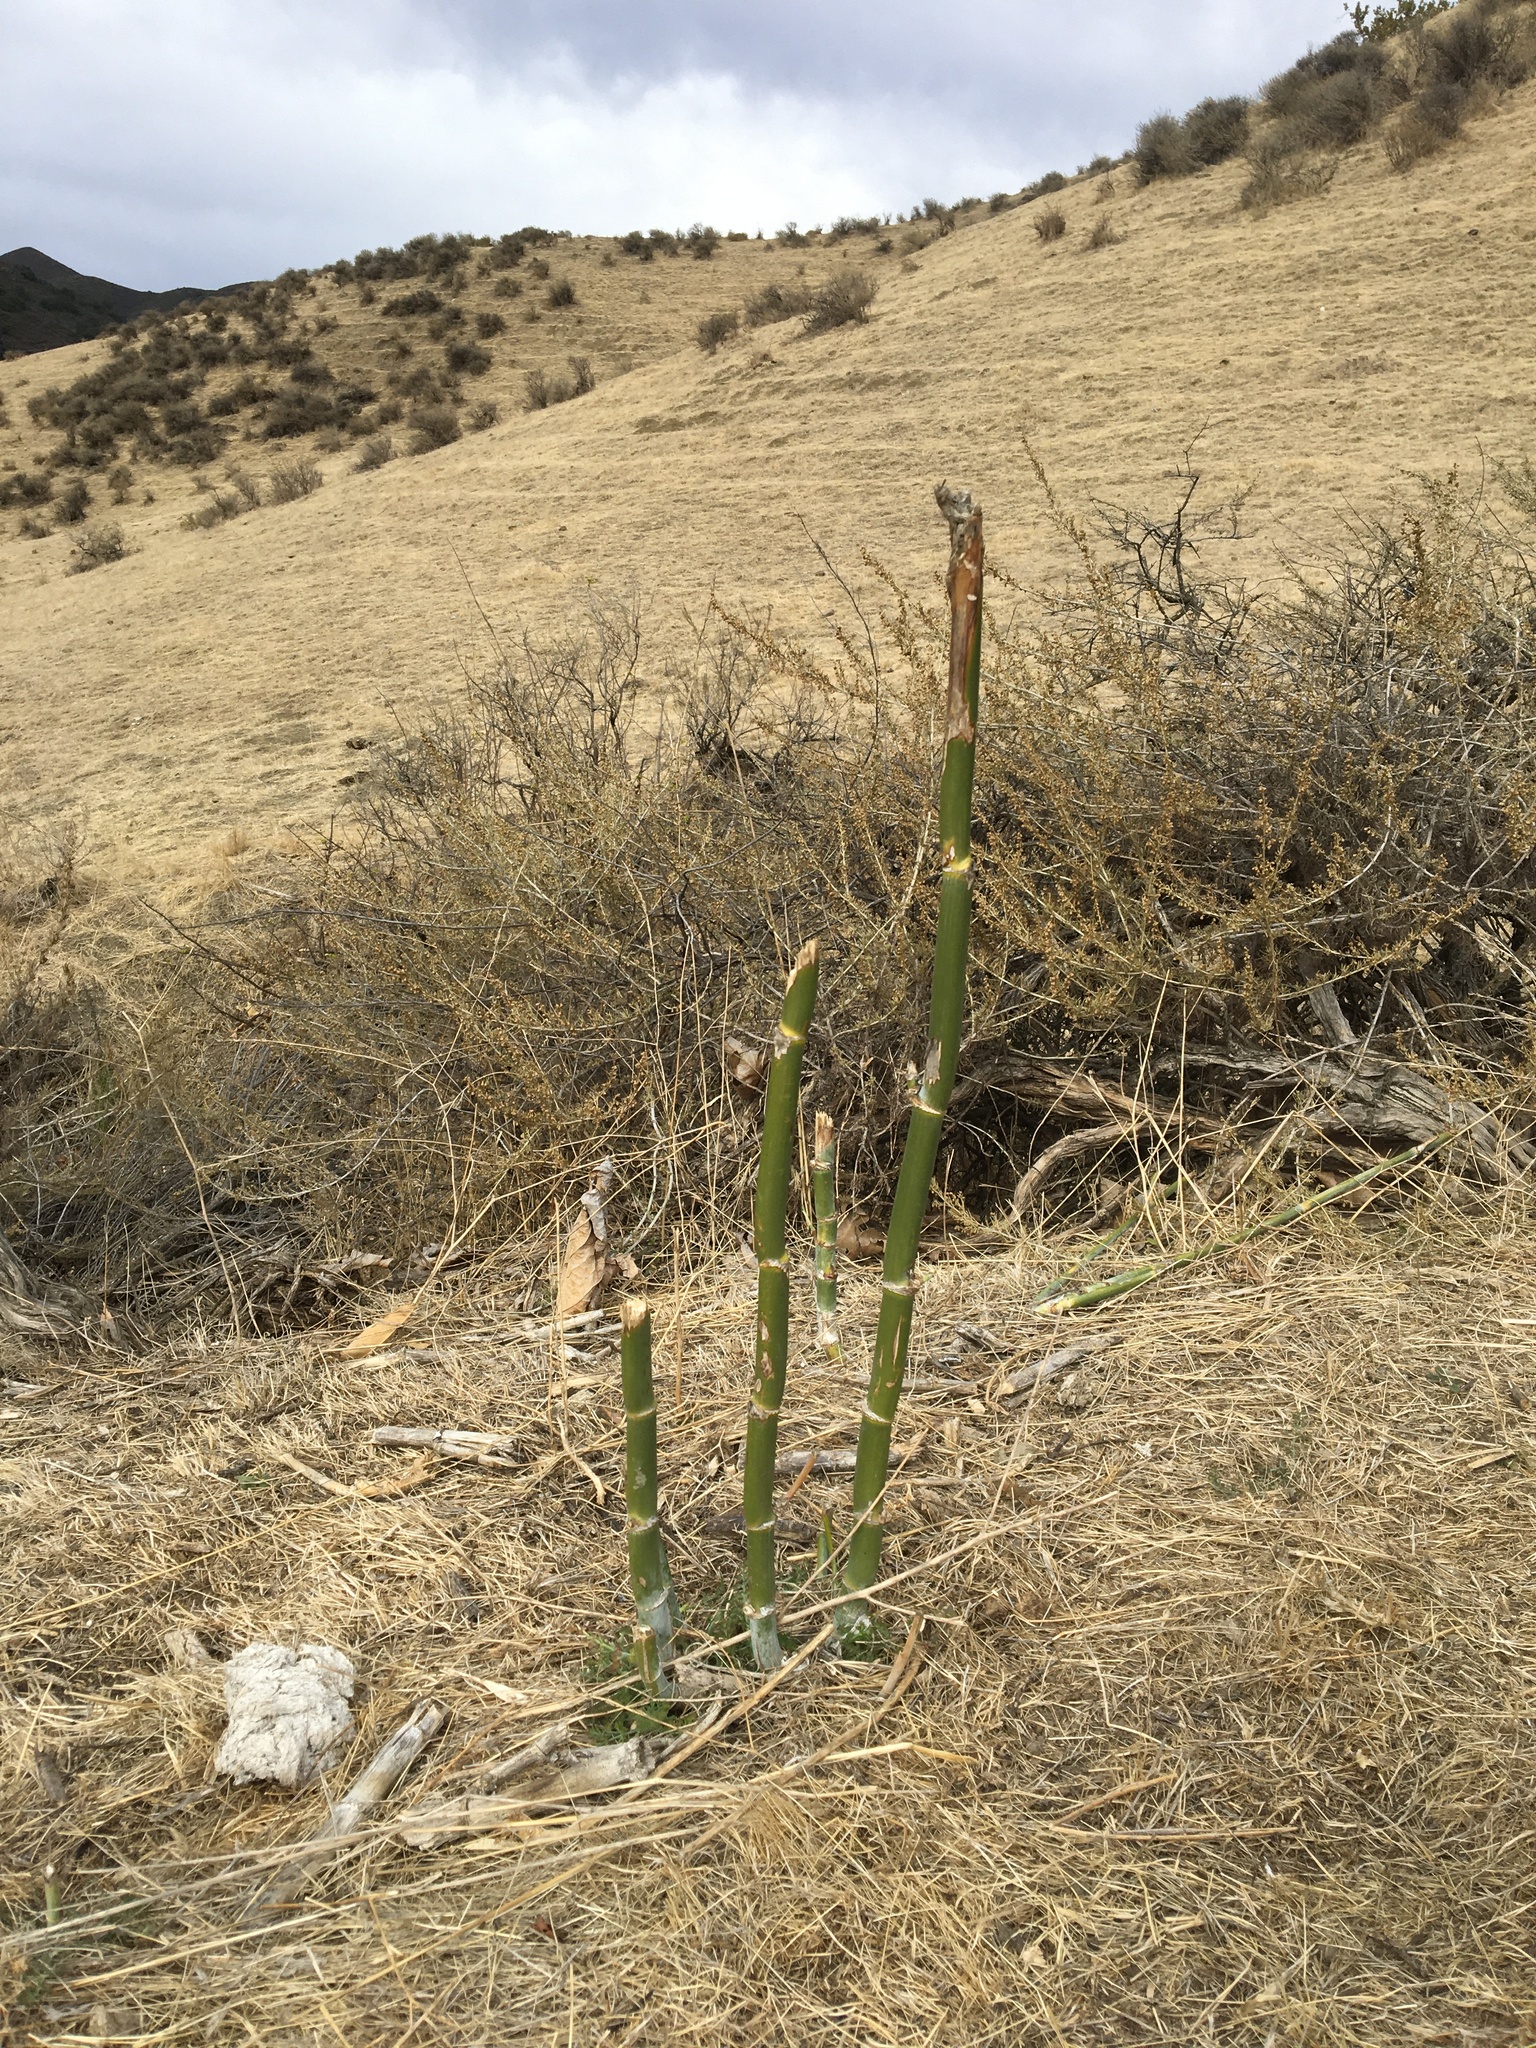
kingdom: Plantae
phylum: Tracheophyta
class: Magnoliopsida
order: Apiales
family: Apiaceae
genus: Foeniculum
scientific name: Foeniculum vulgare
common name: Fennel
